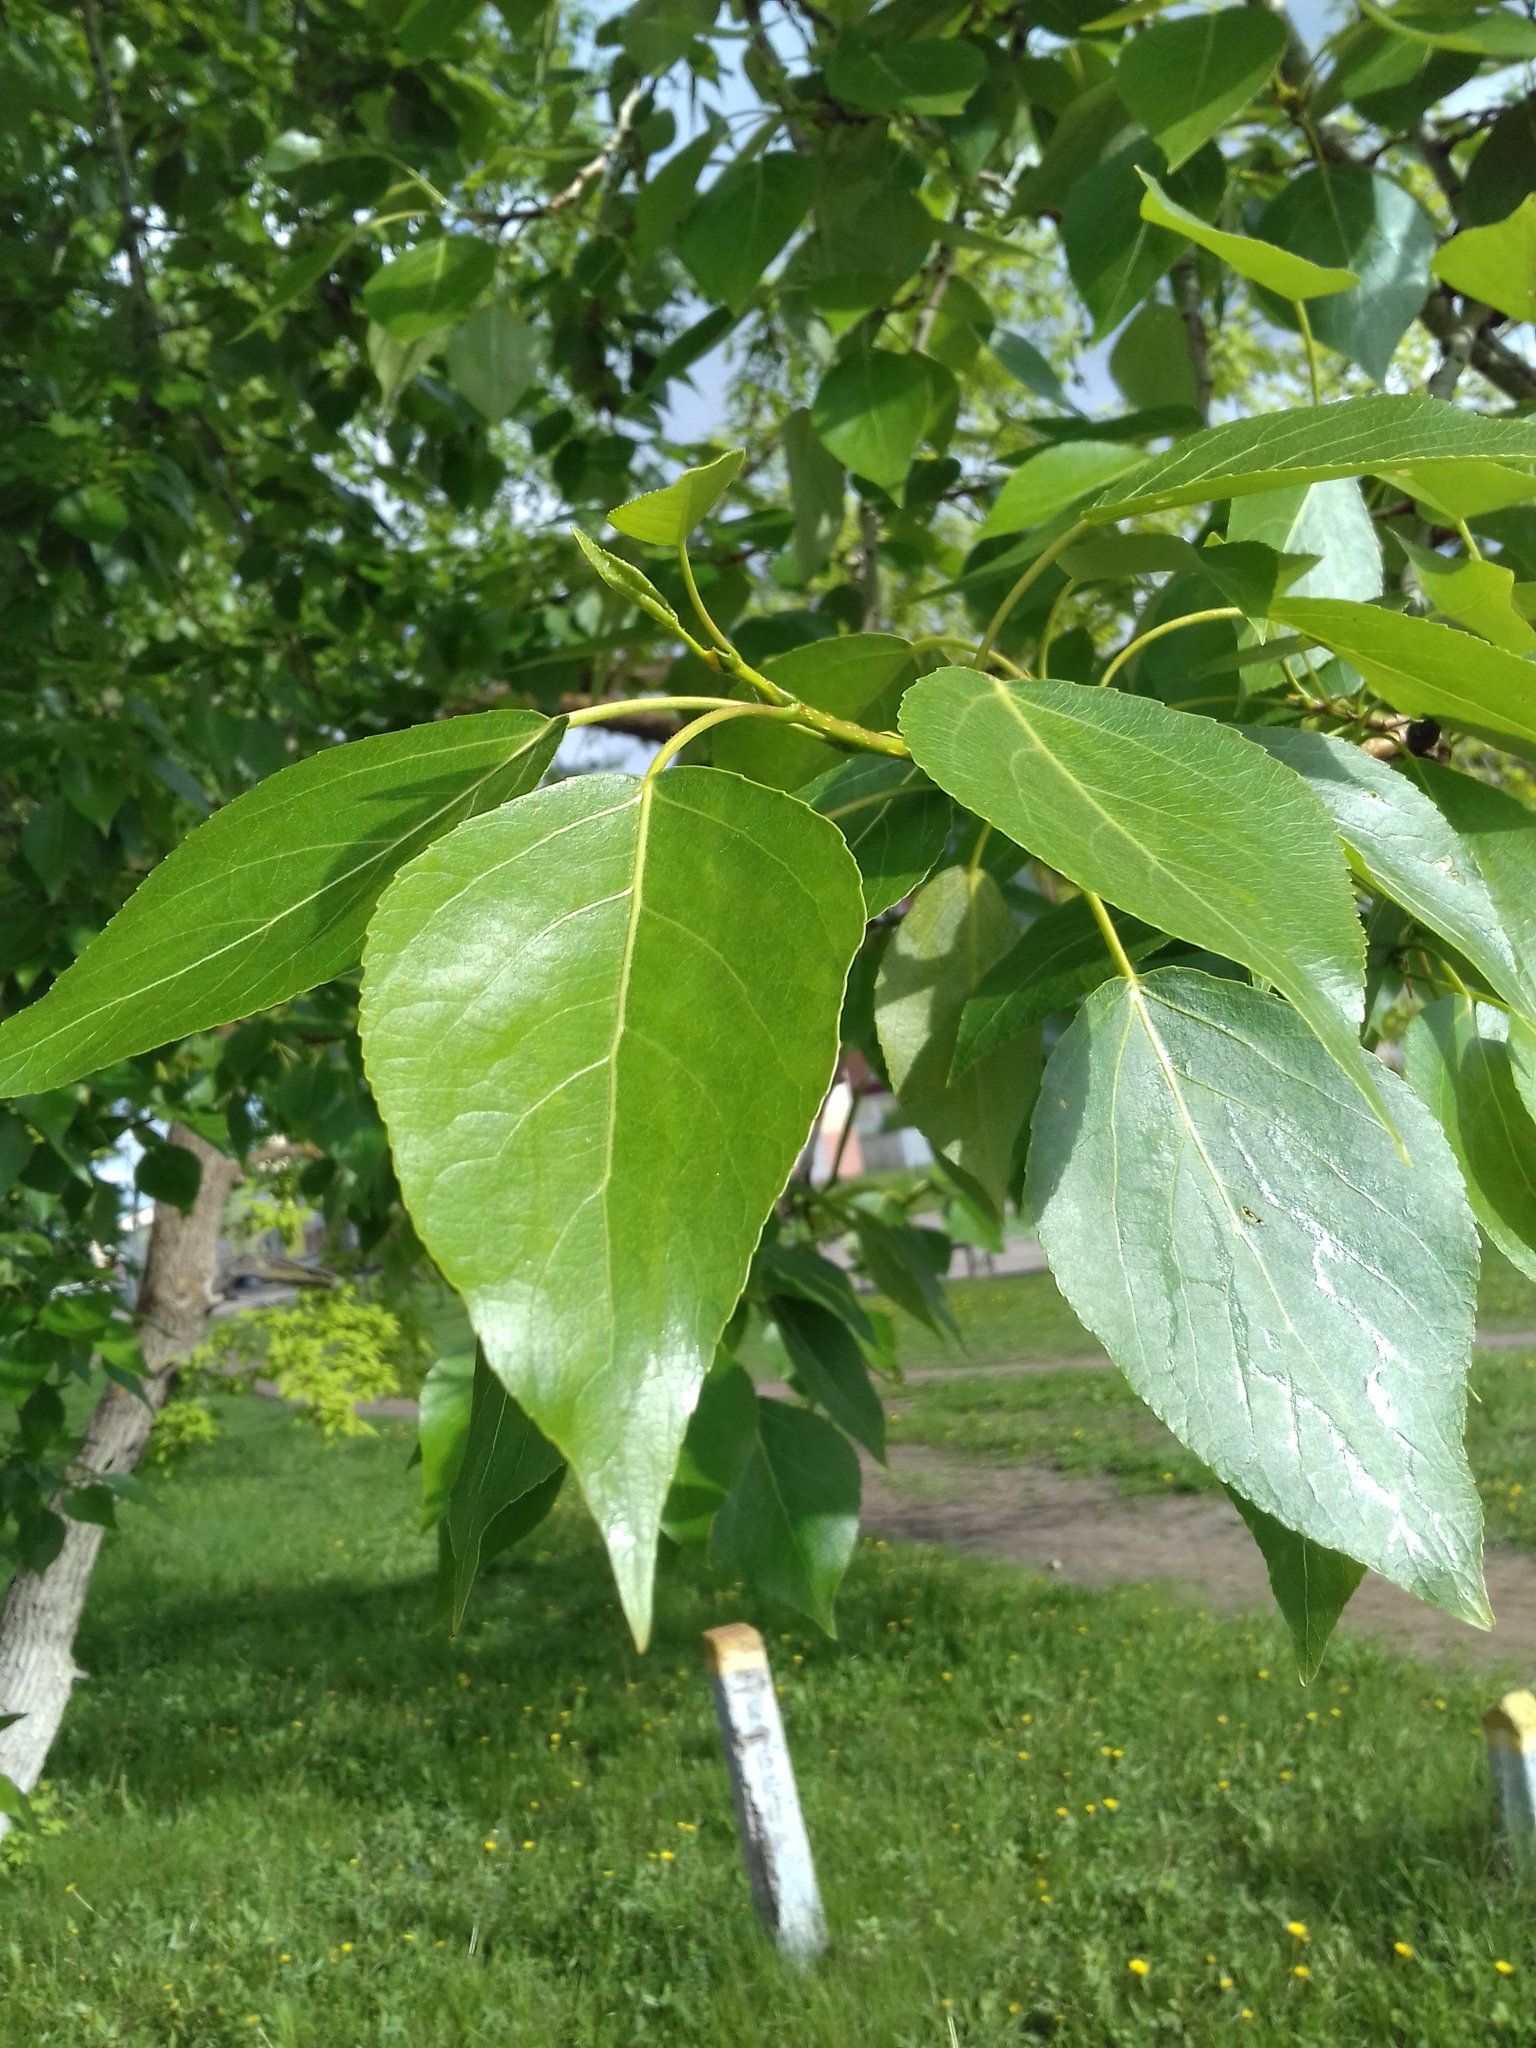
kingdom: Plantae
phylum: Tracheophyta
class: Magnoliopsida
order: Malpighiales
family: Salicaceae
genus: Populus
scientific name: Populus balsamifera
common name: Balsam poplar
